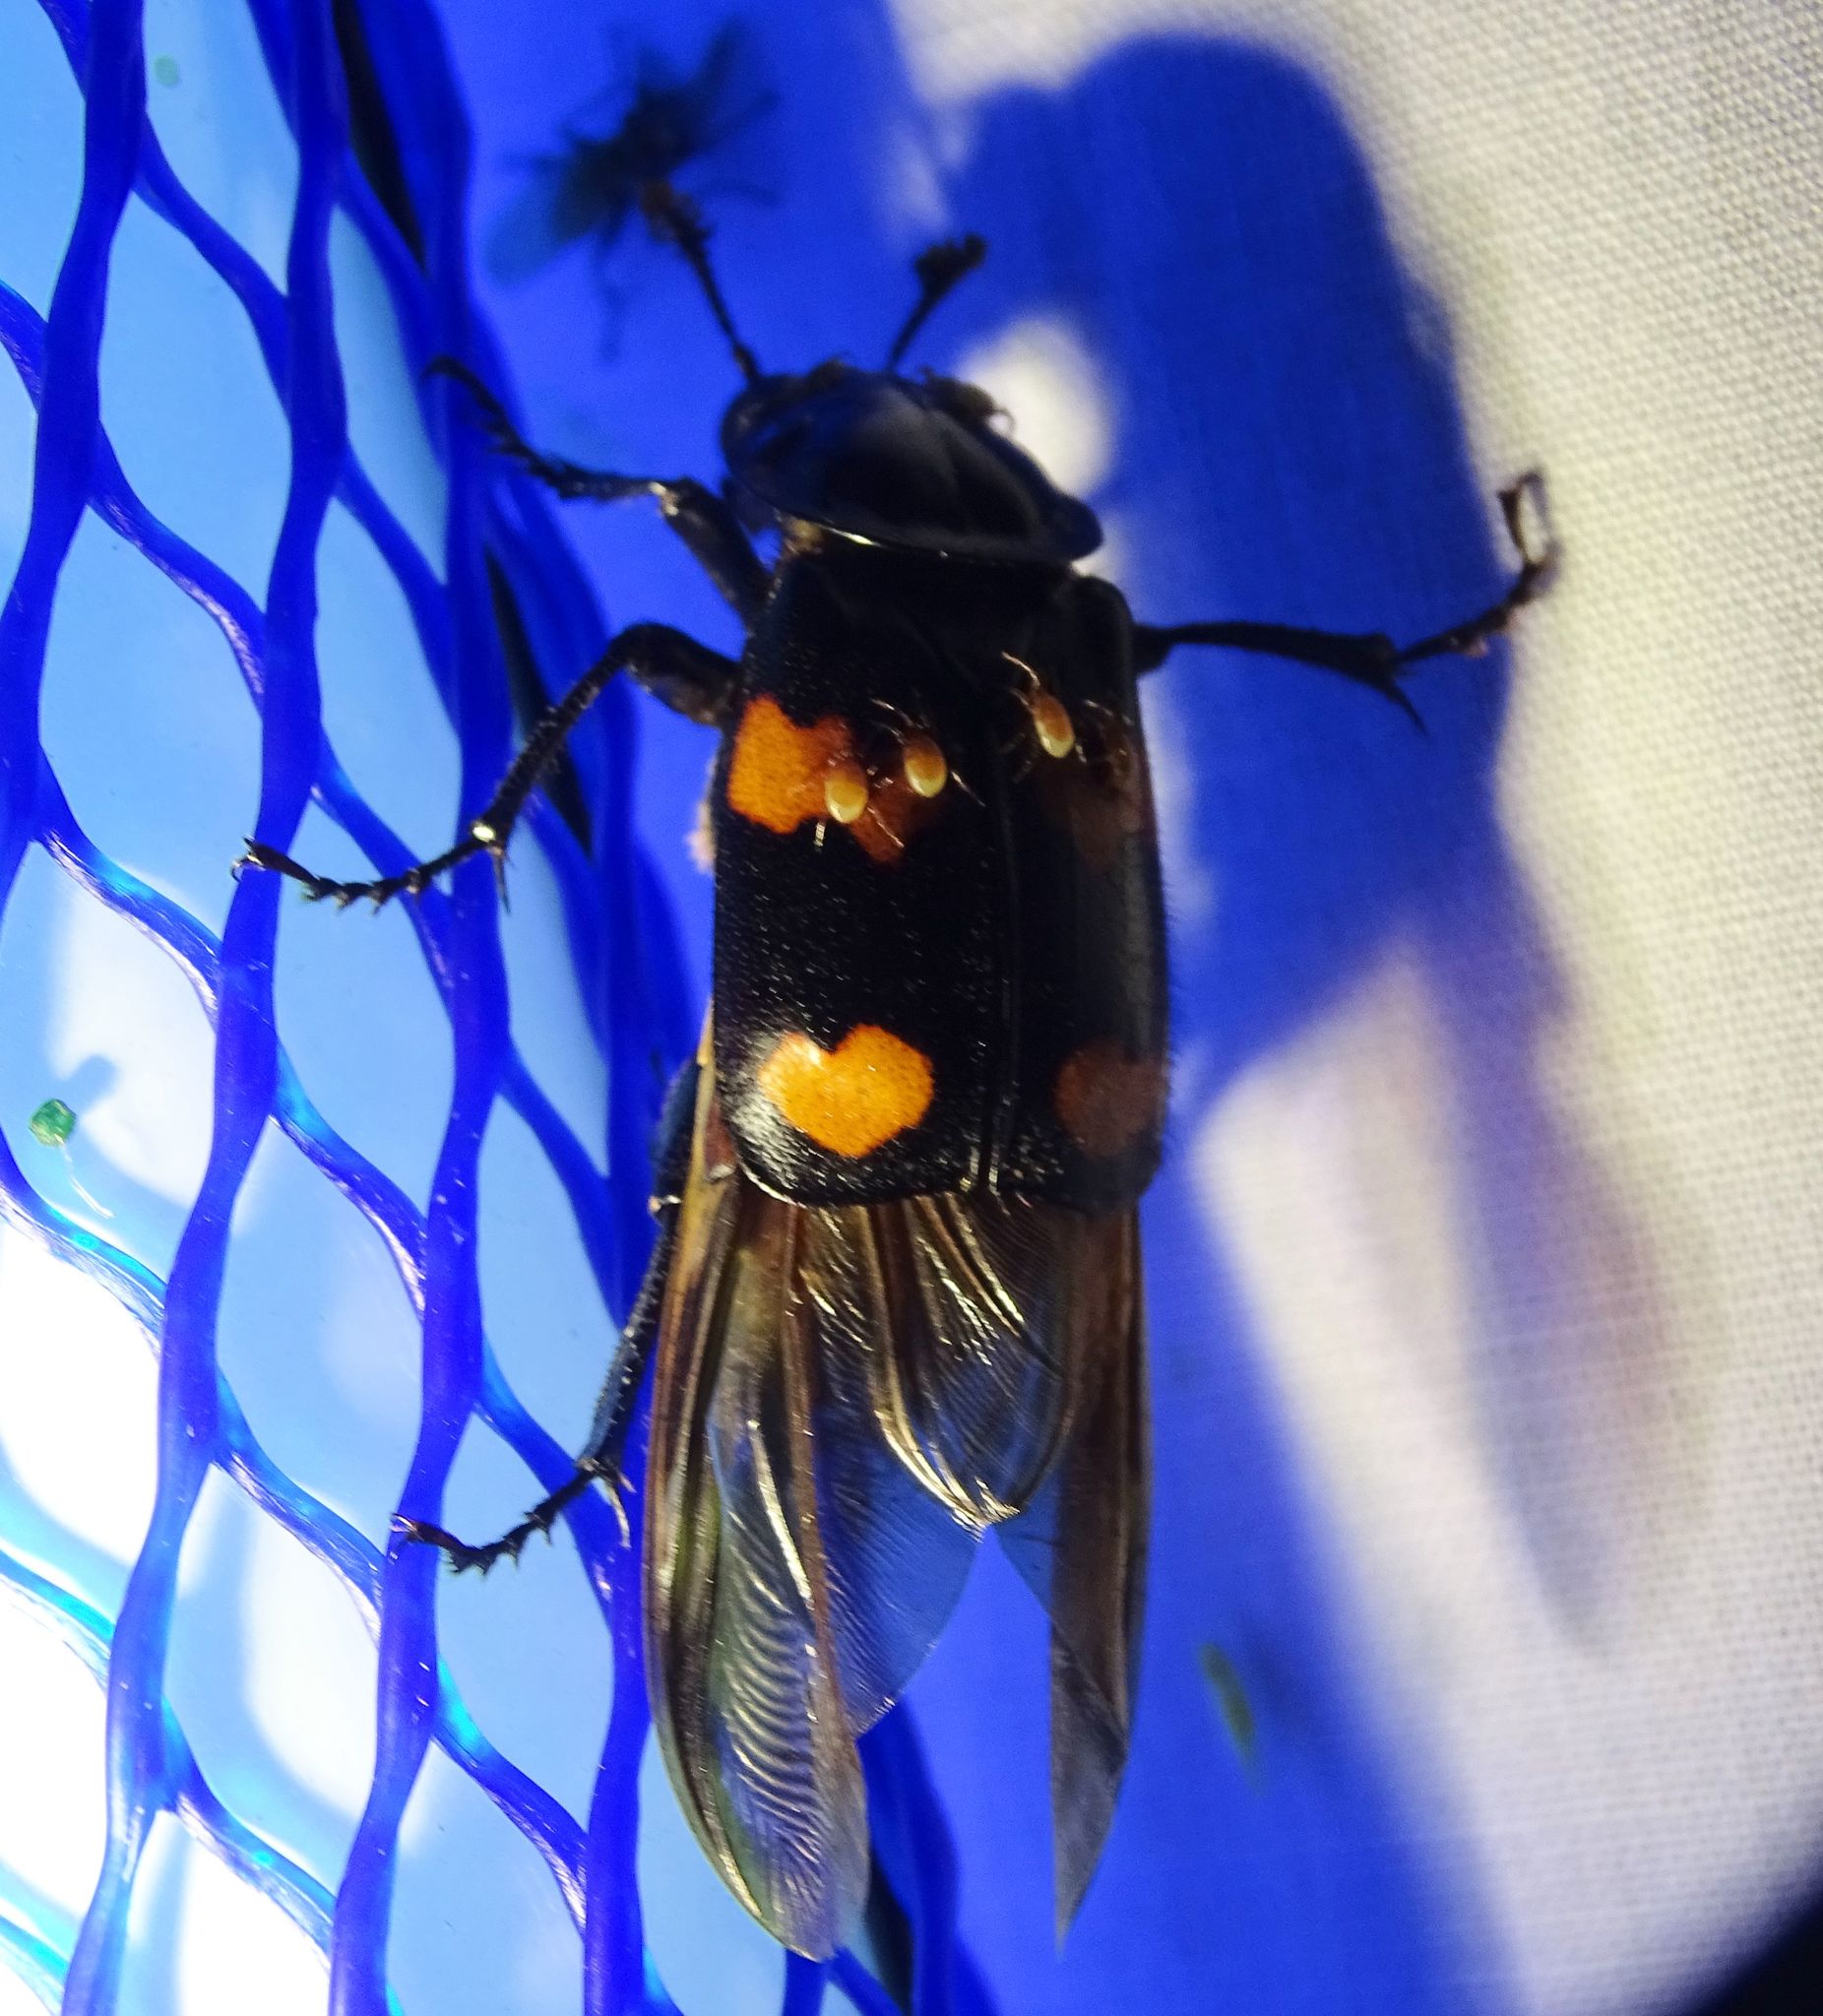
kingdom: Animalia
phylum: Arthropoda
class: Insecta
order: Coleoptera
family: Staphylinidae
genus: Nicrophorus
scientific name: Nicrophorus orbicollis
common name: Roundneck sexton beetle
